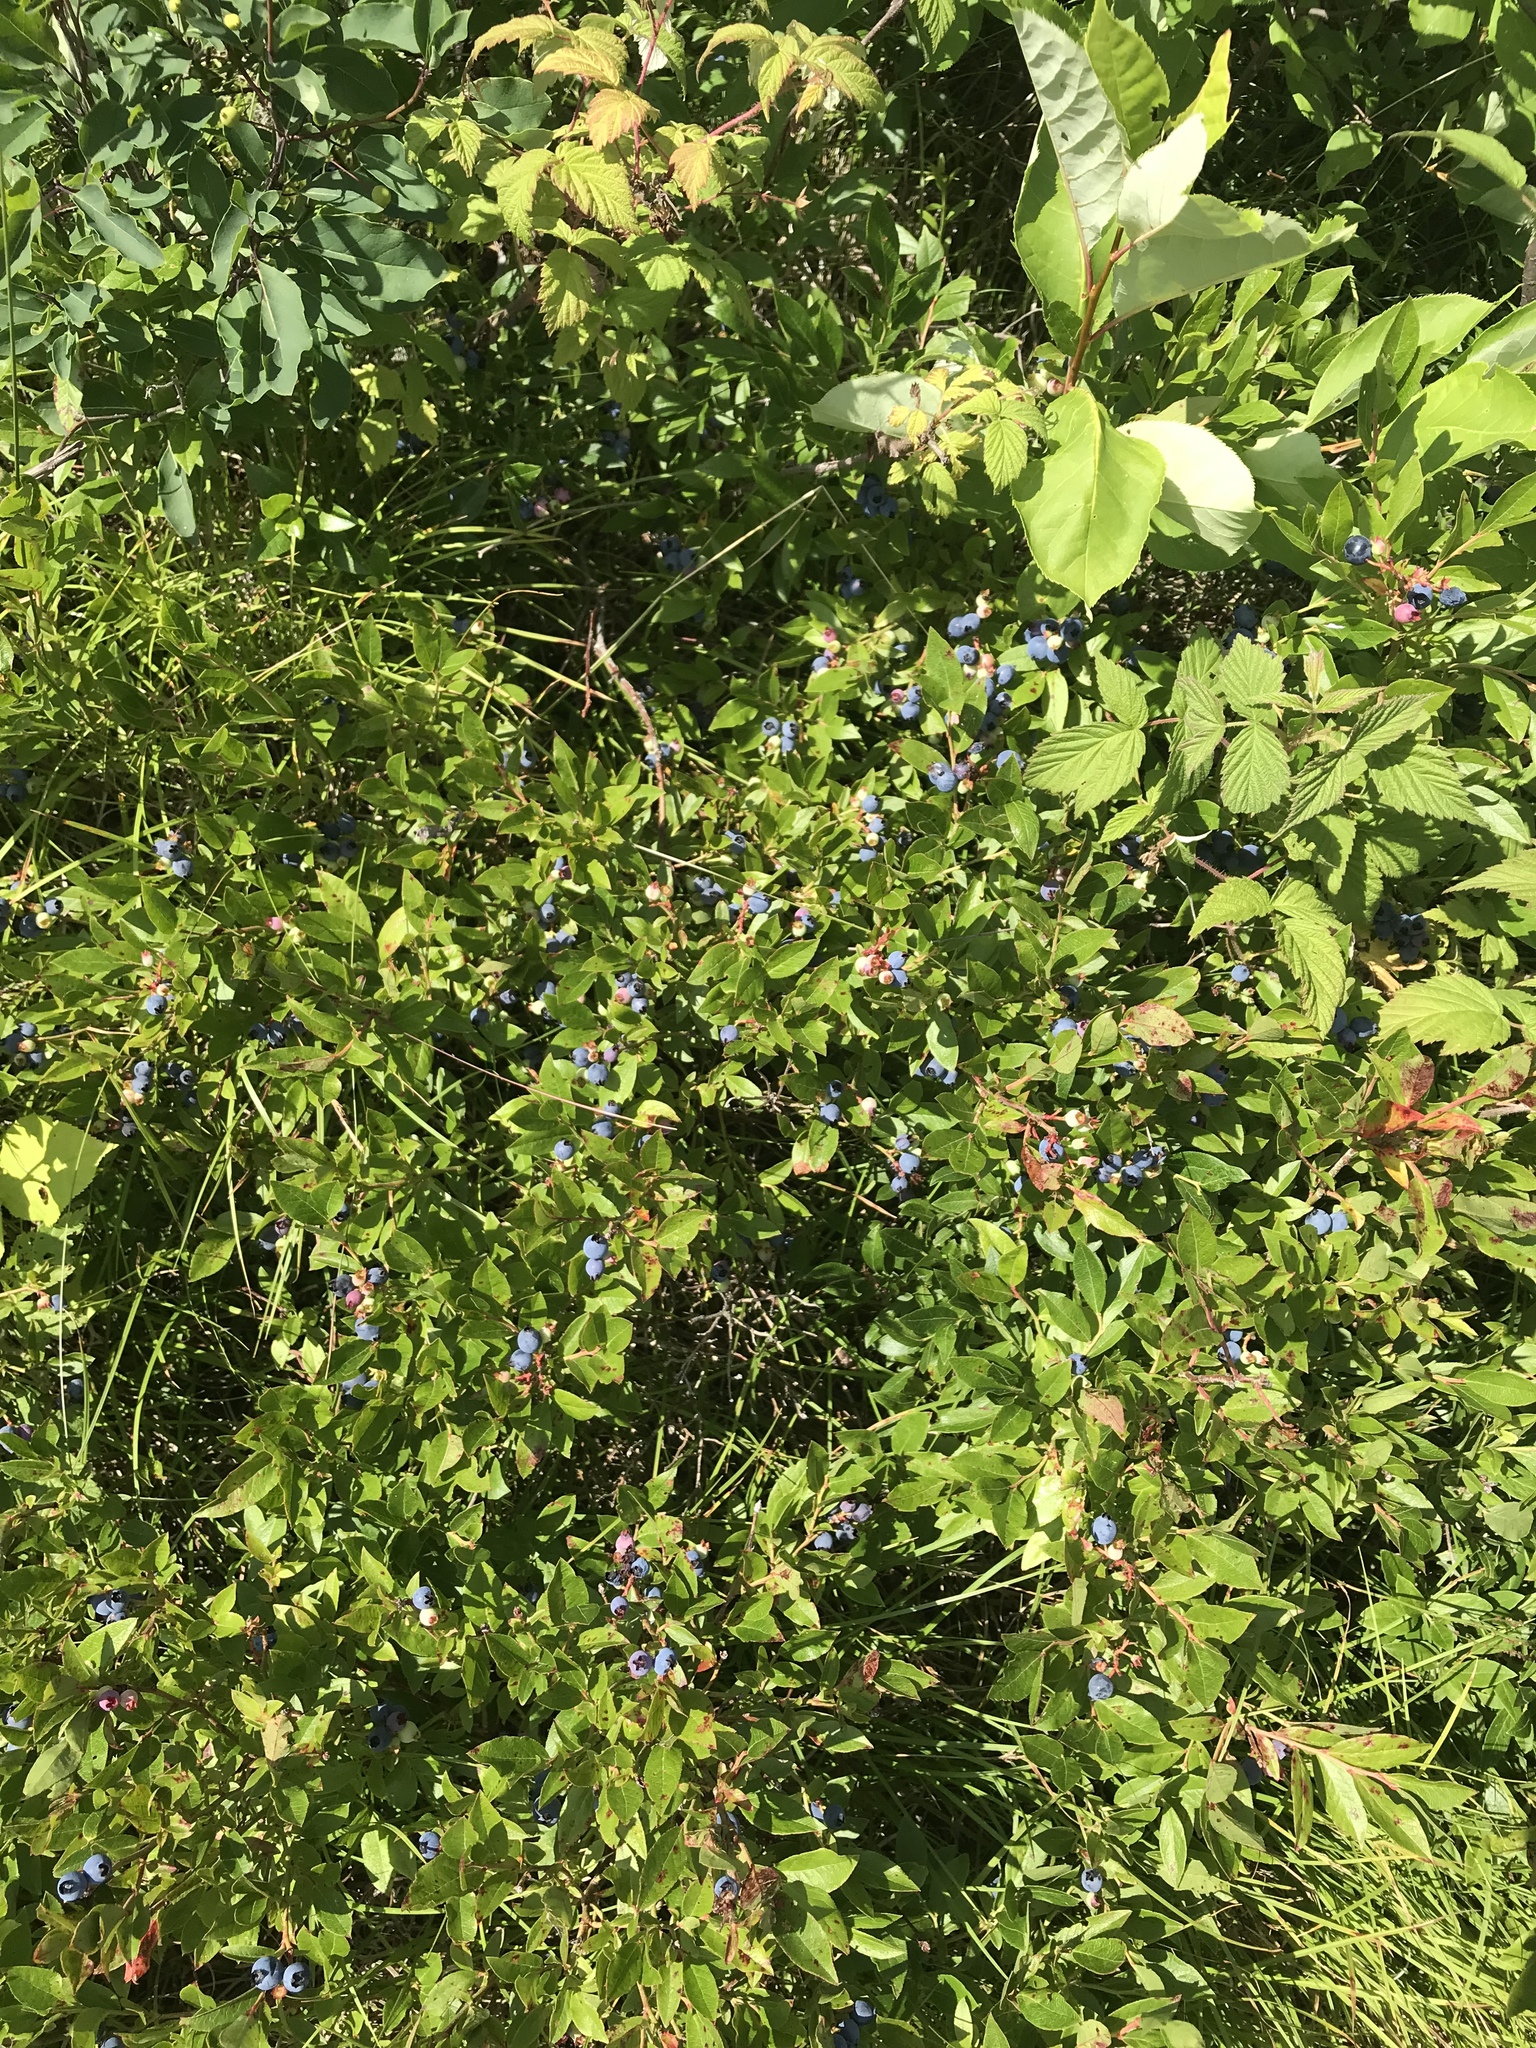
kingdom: Plantae
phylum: Tracheophyta
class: Magnoliopsida
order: Ericales
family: Ericaceae
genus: Vaccinium
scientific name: Vaccinium angustifolium
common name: Early lowbush blueberry
